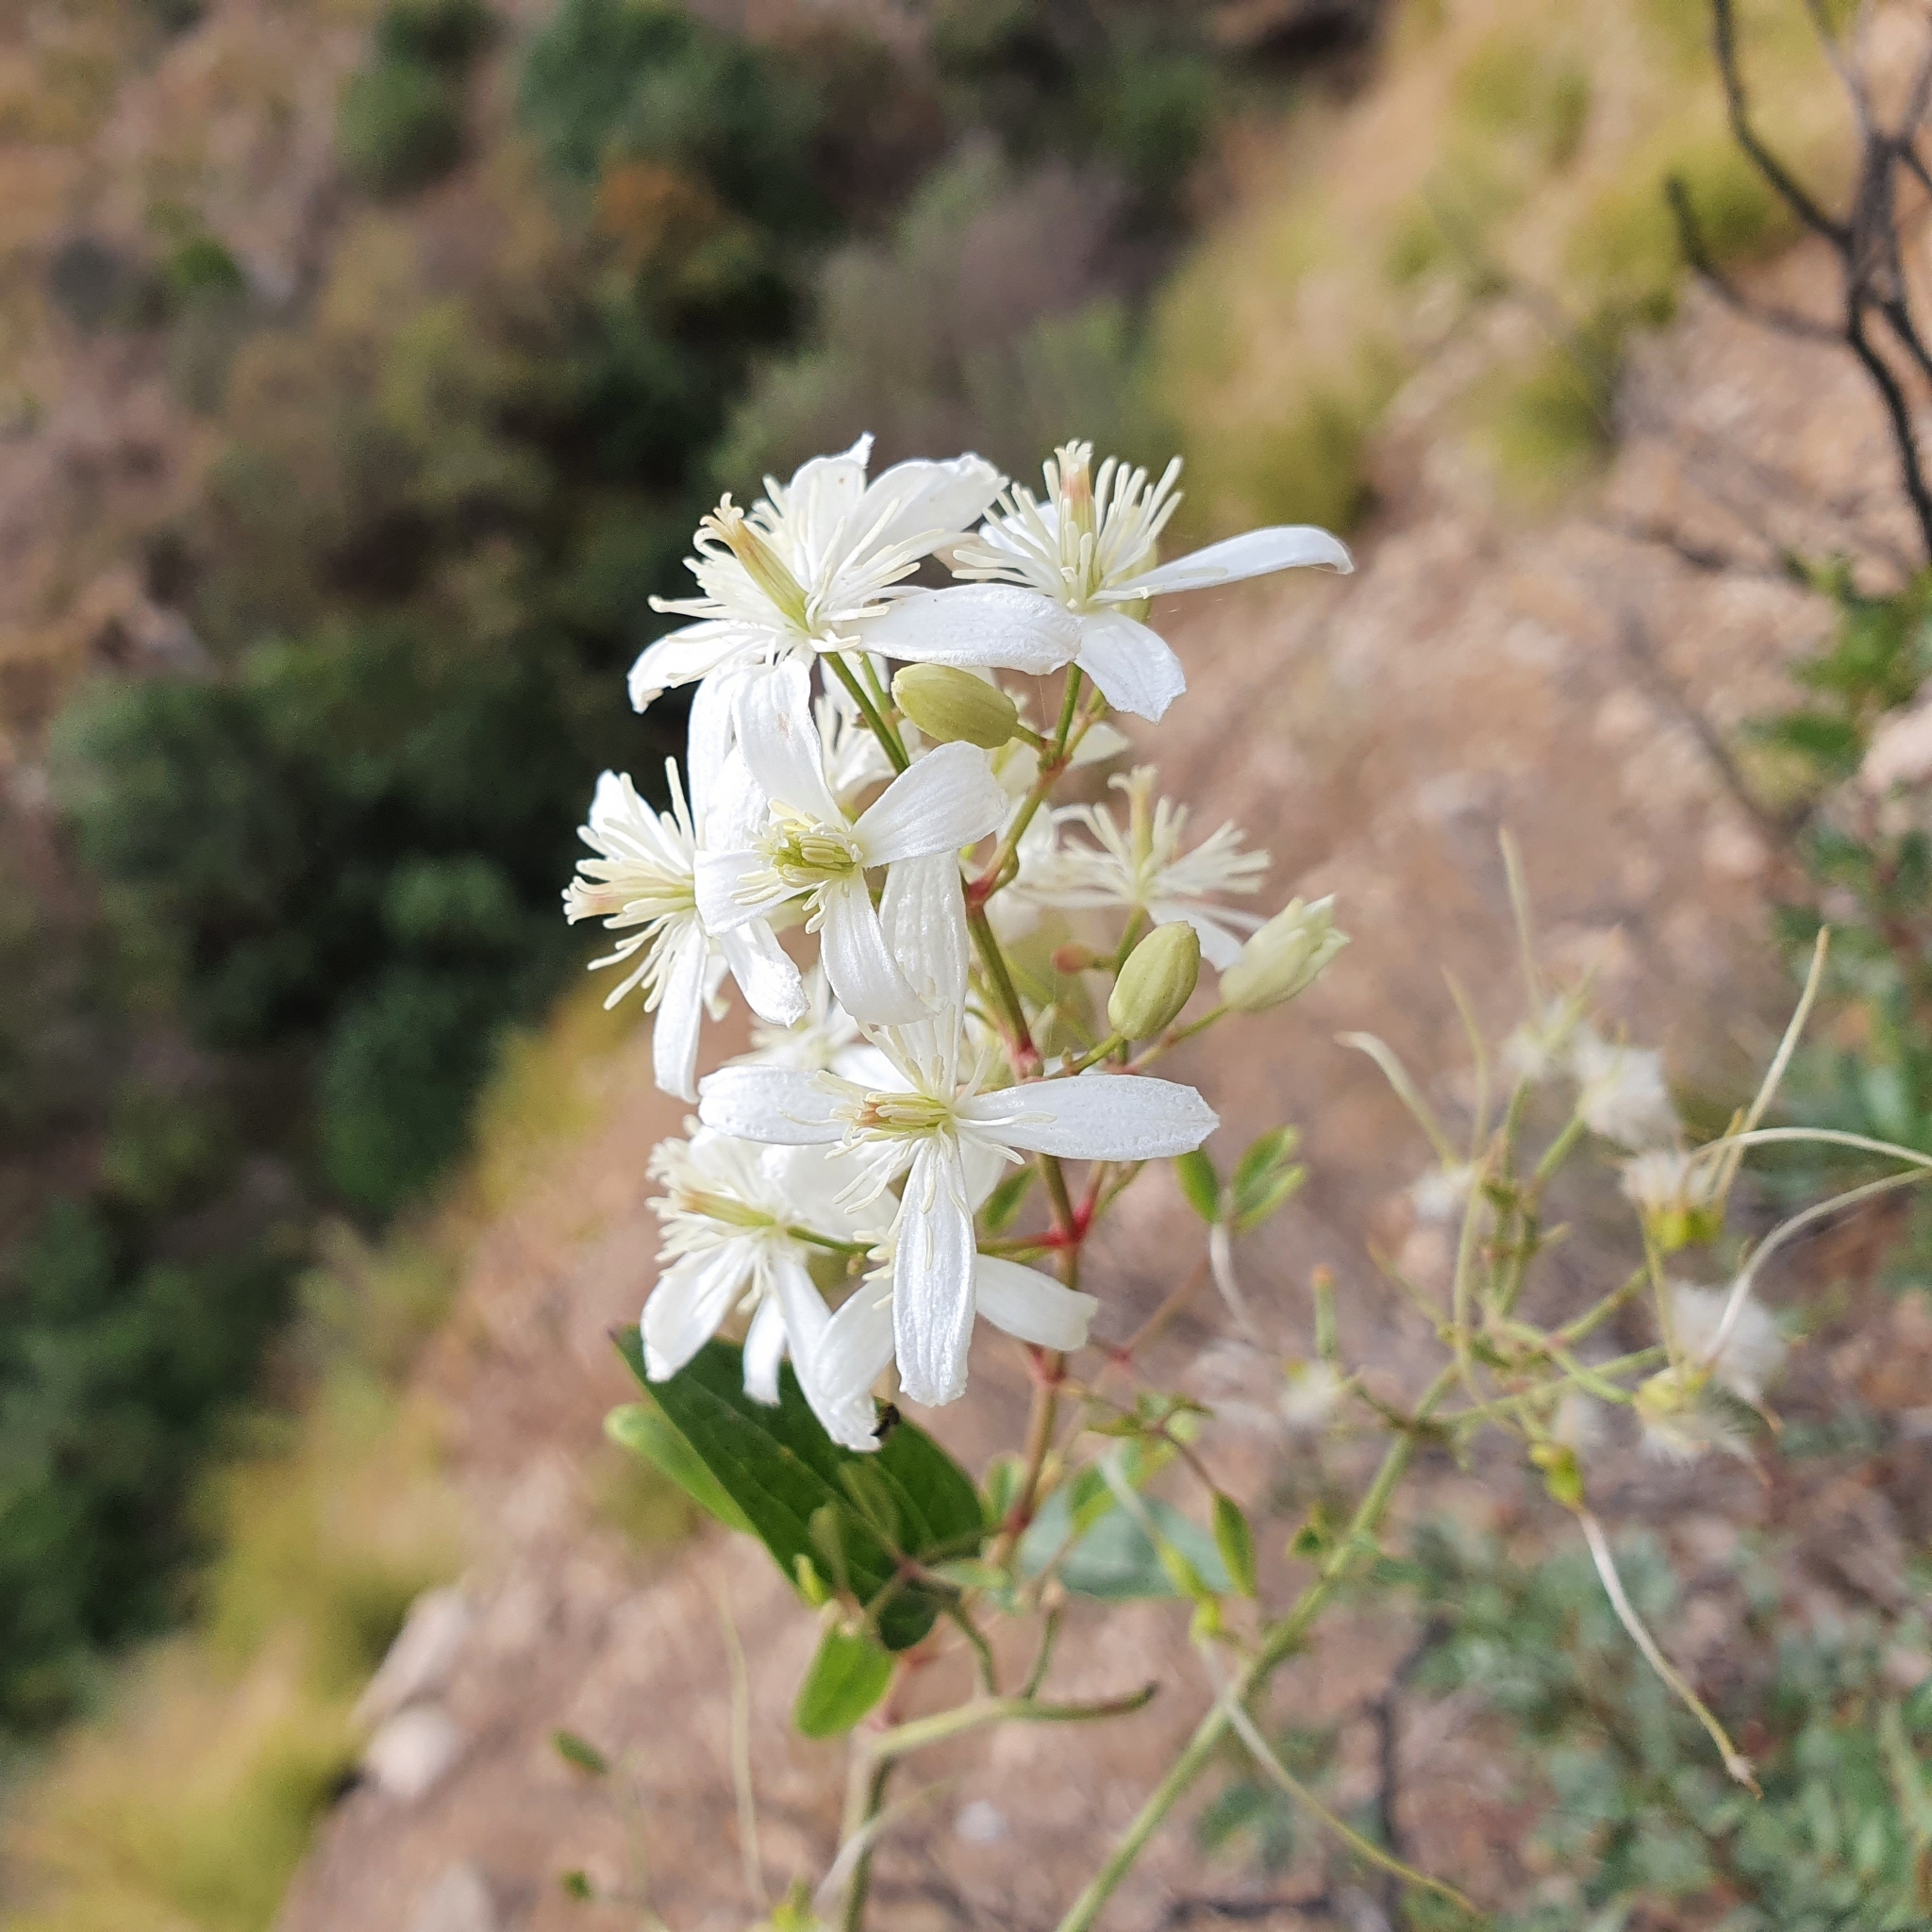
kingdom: Plantae
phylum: Tracheophyta
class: Magnoliopsida
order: Ranunculales
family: Ranunculaceae
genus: Clematis
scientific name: Clematis flammula
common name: Virgin's-bower
